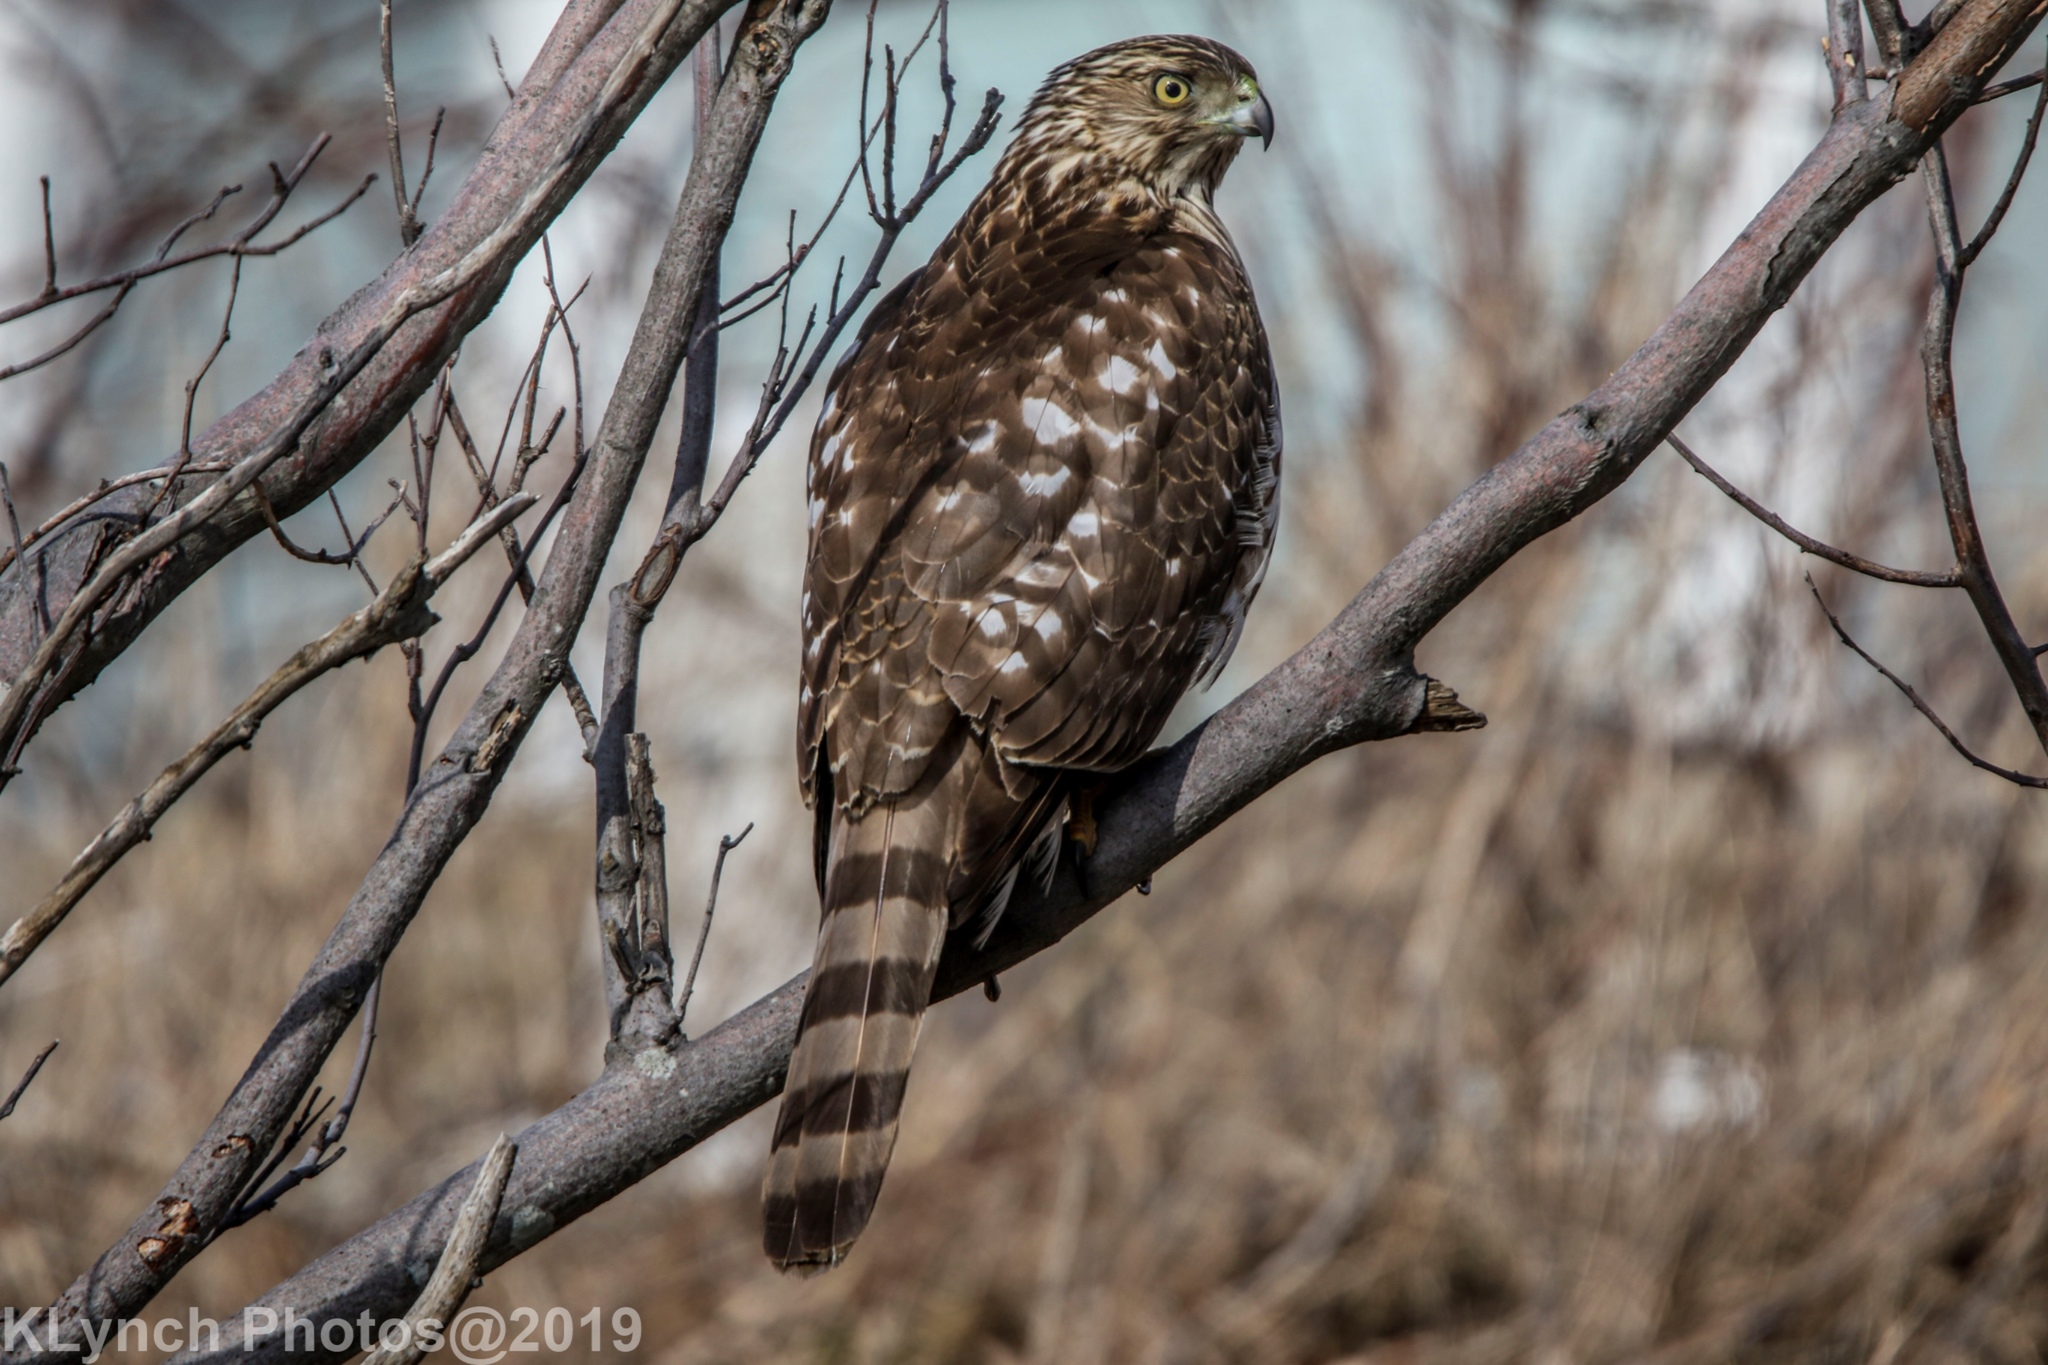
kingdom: Animalia
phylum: Chordata
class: Aves
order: Accipitriformes
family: Accipitridae
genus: Accipiter
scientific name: Accipiter cooperii
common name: Cooper's hawk
